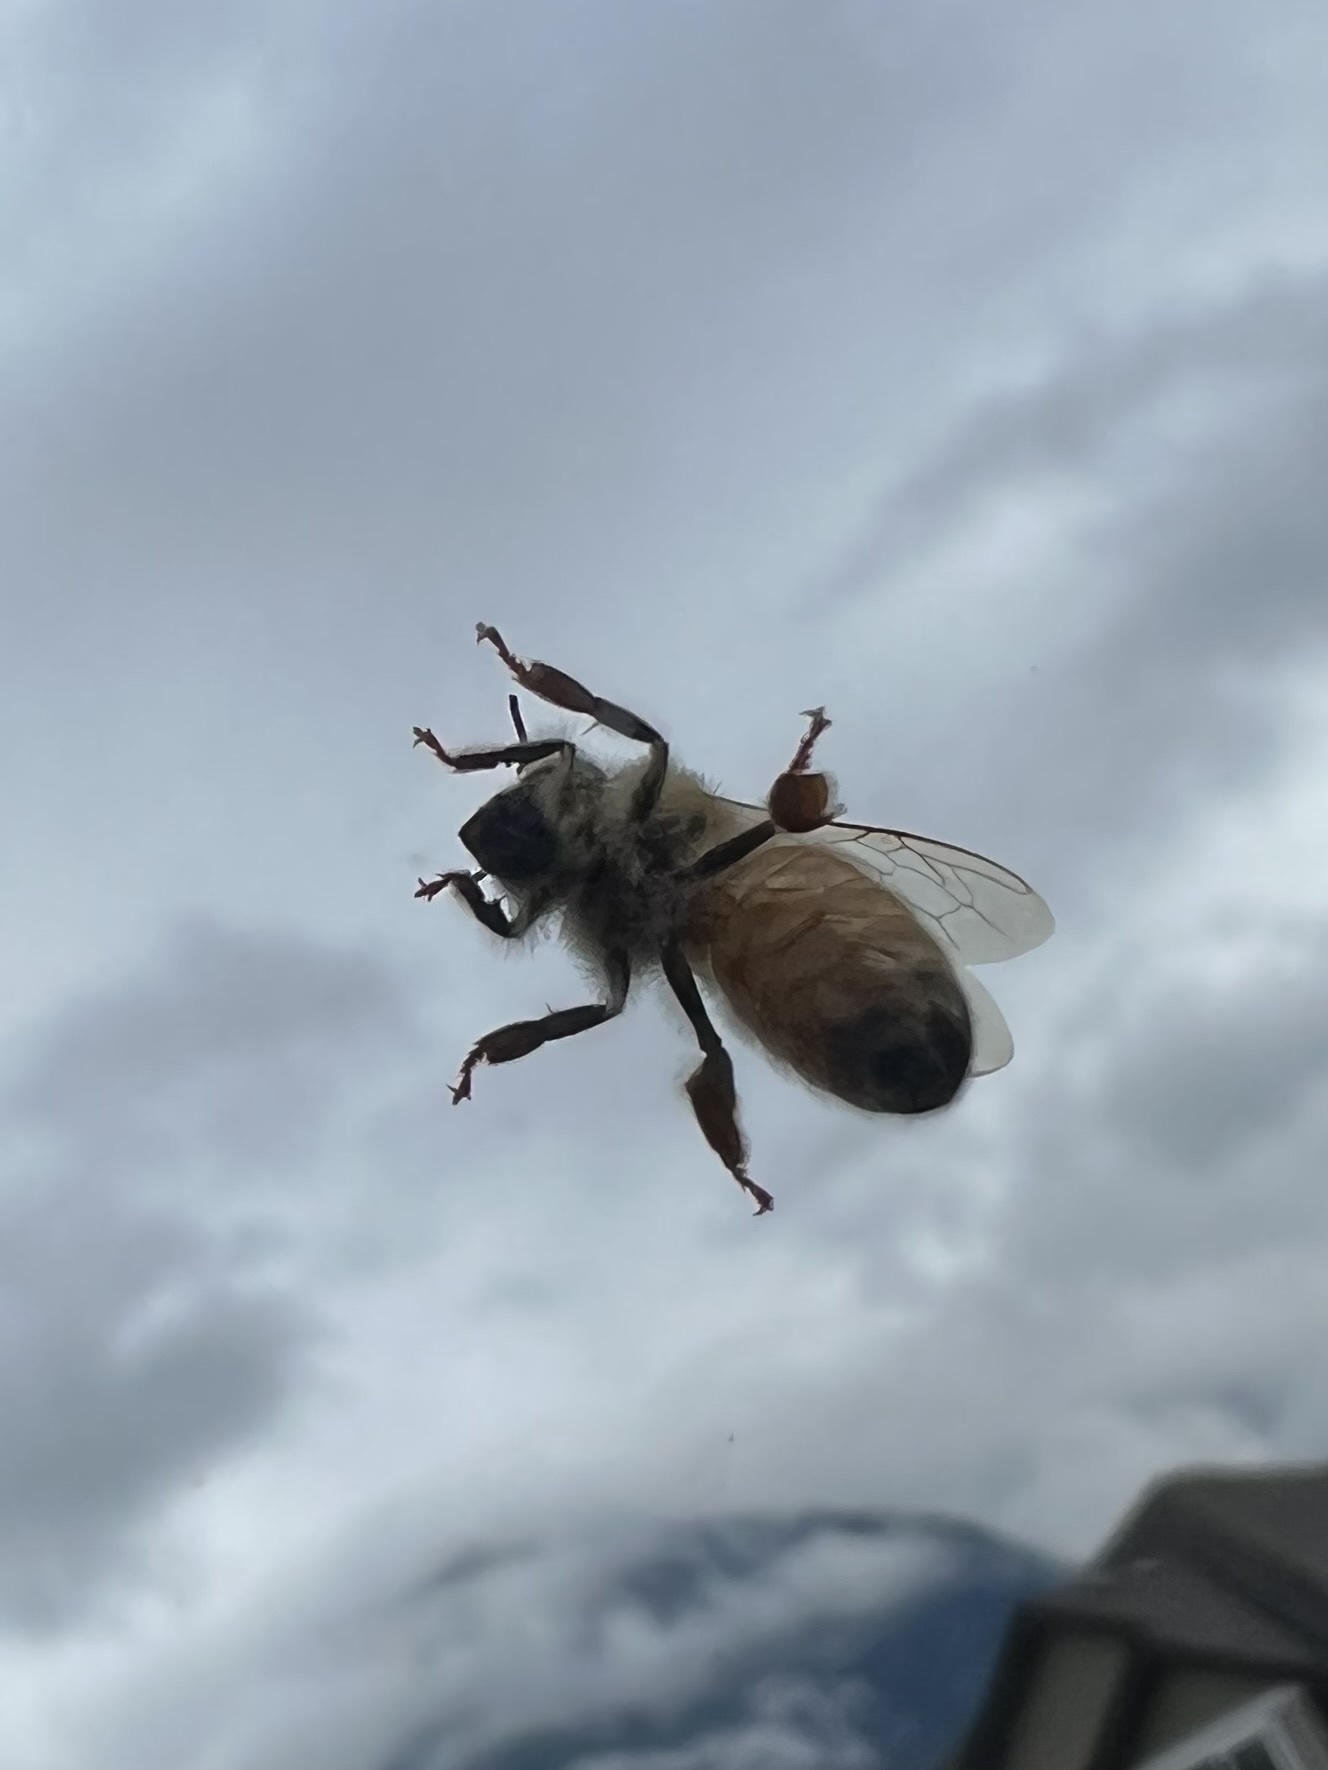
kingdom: Animalia
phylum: Arthropoda
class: Insecta
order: Hymenoptera
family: Apidae
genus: Apis
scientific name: Apis mellifera
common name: Honey bee
